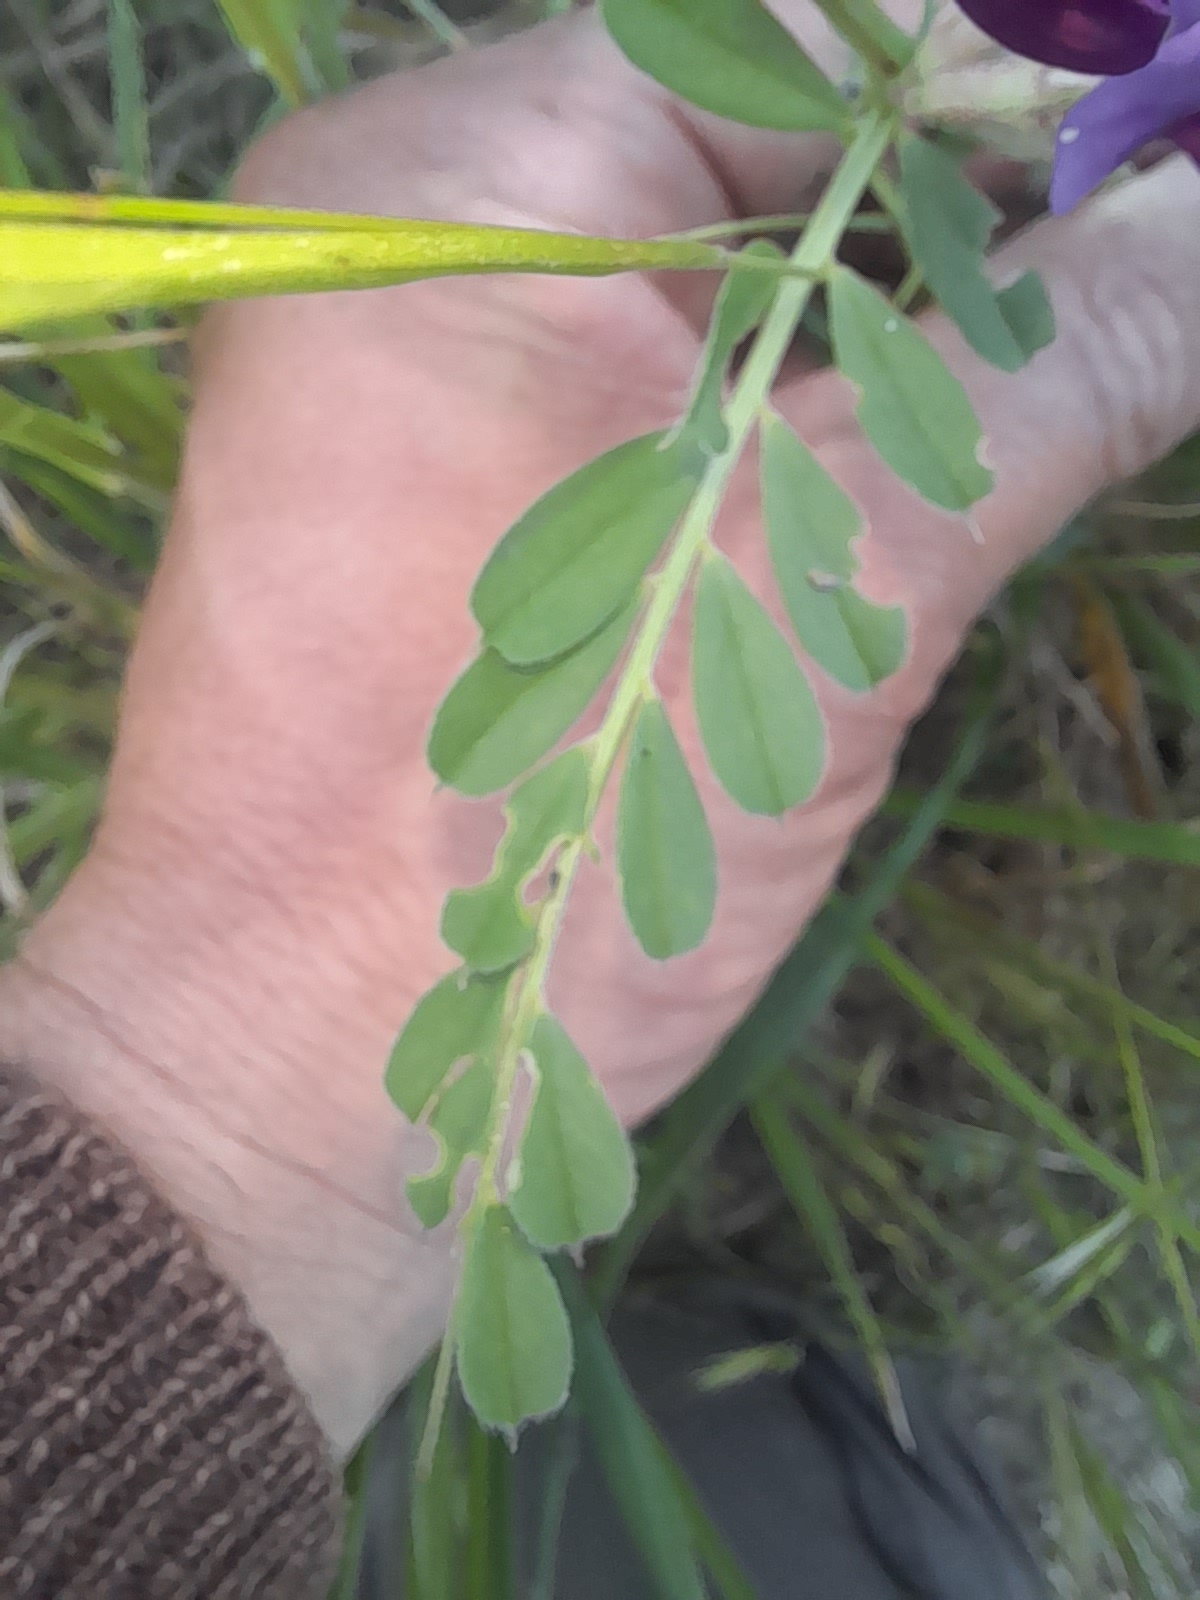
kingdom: Plantae
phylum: Tracheophyta
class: Magnoliopsida
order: Fabales
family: Fabaceae
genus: Vicia
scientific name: Vicia sativa
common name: Garden vetch
